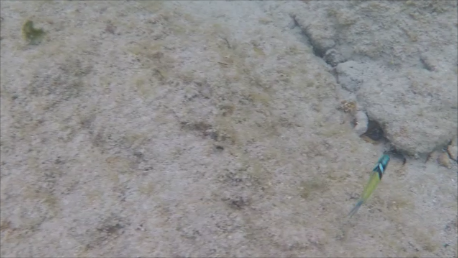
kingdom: Animalia
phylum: Chordata
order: Perciformes
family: Labridae
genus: Thalassoma
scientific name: Thalassoma bifasciatum
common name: Bluehead wrasse
